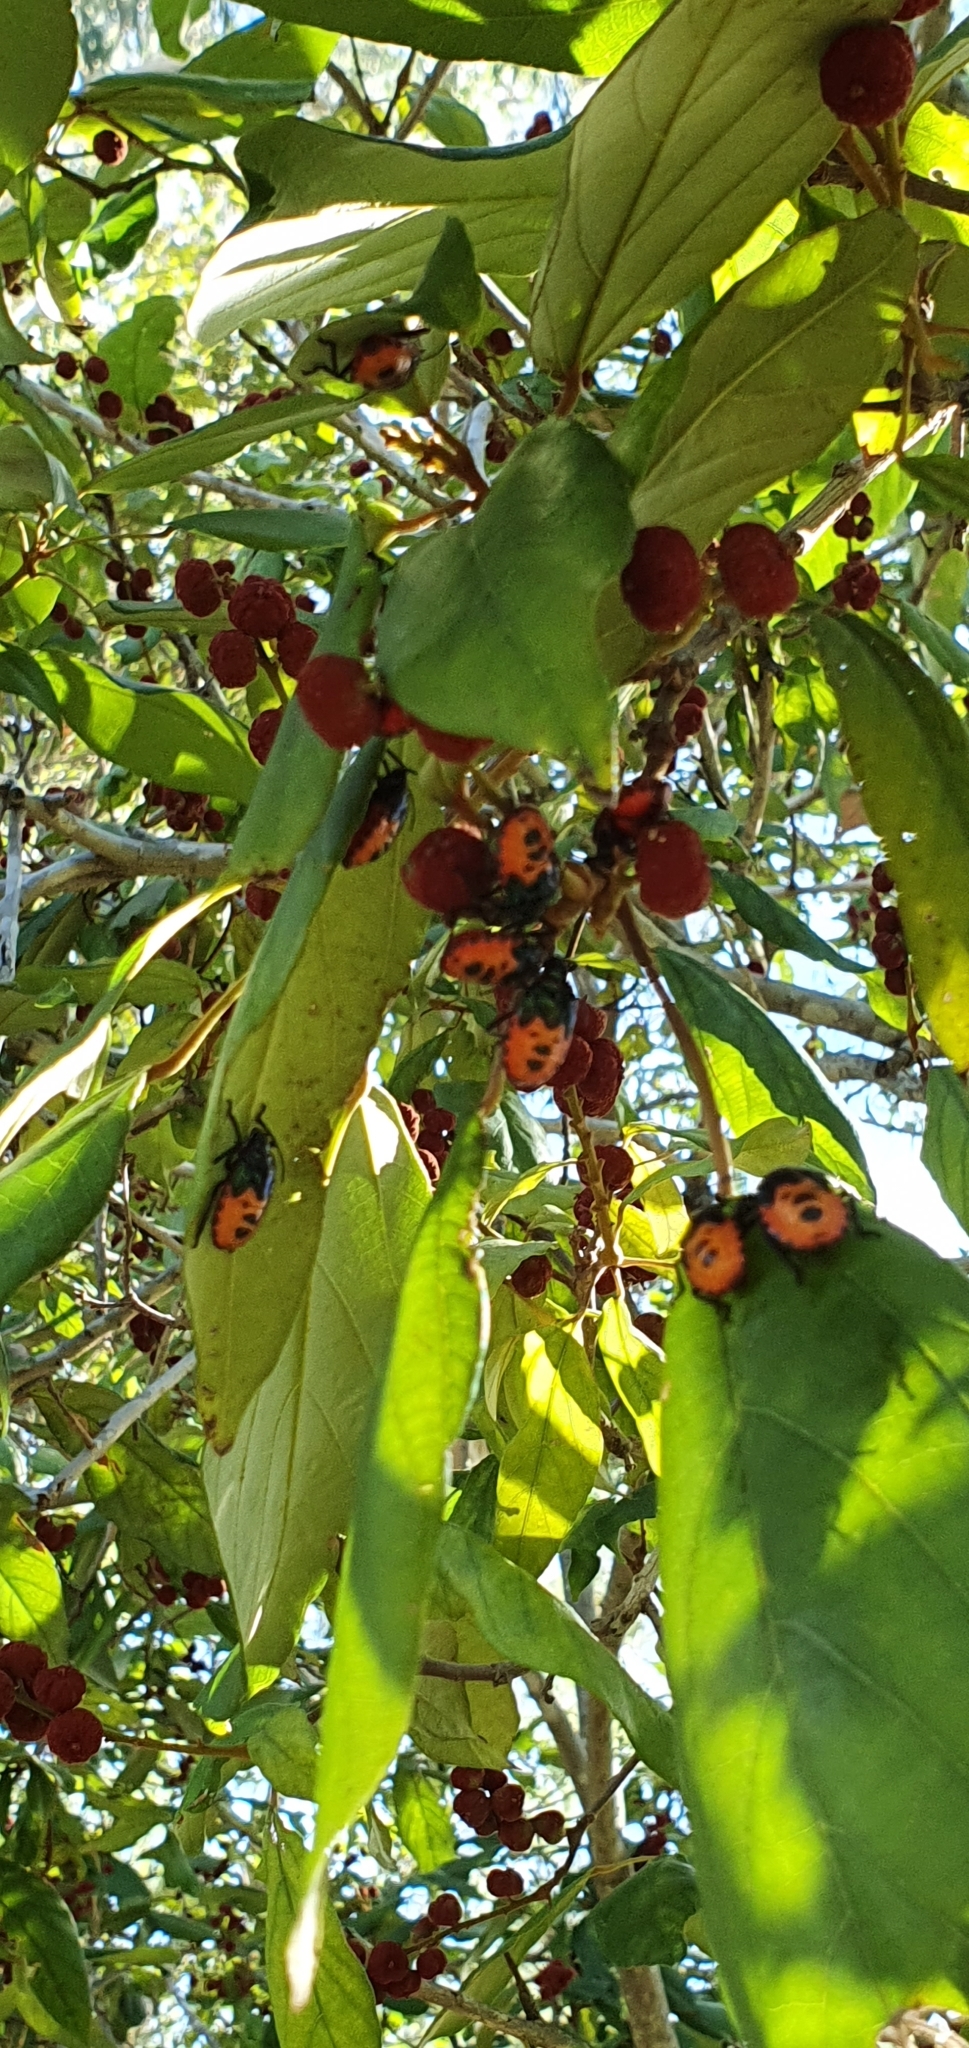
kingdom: Animalia
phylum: Arthropoda
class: Insecta
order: Hemiptera
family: Scutelleridae
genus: Cantao
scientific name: Cantao
